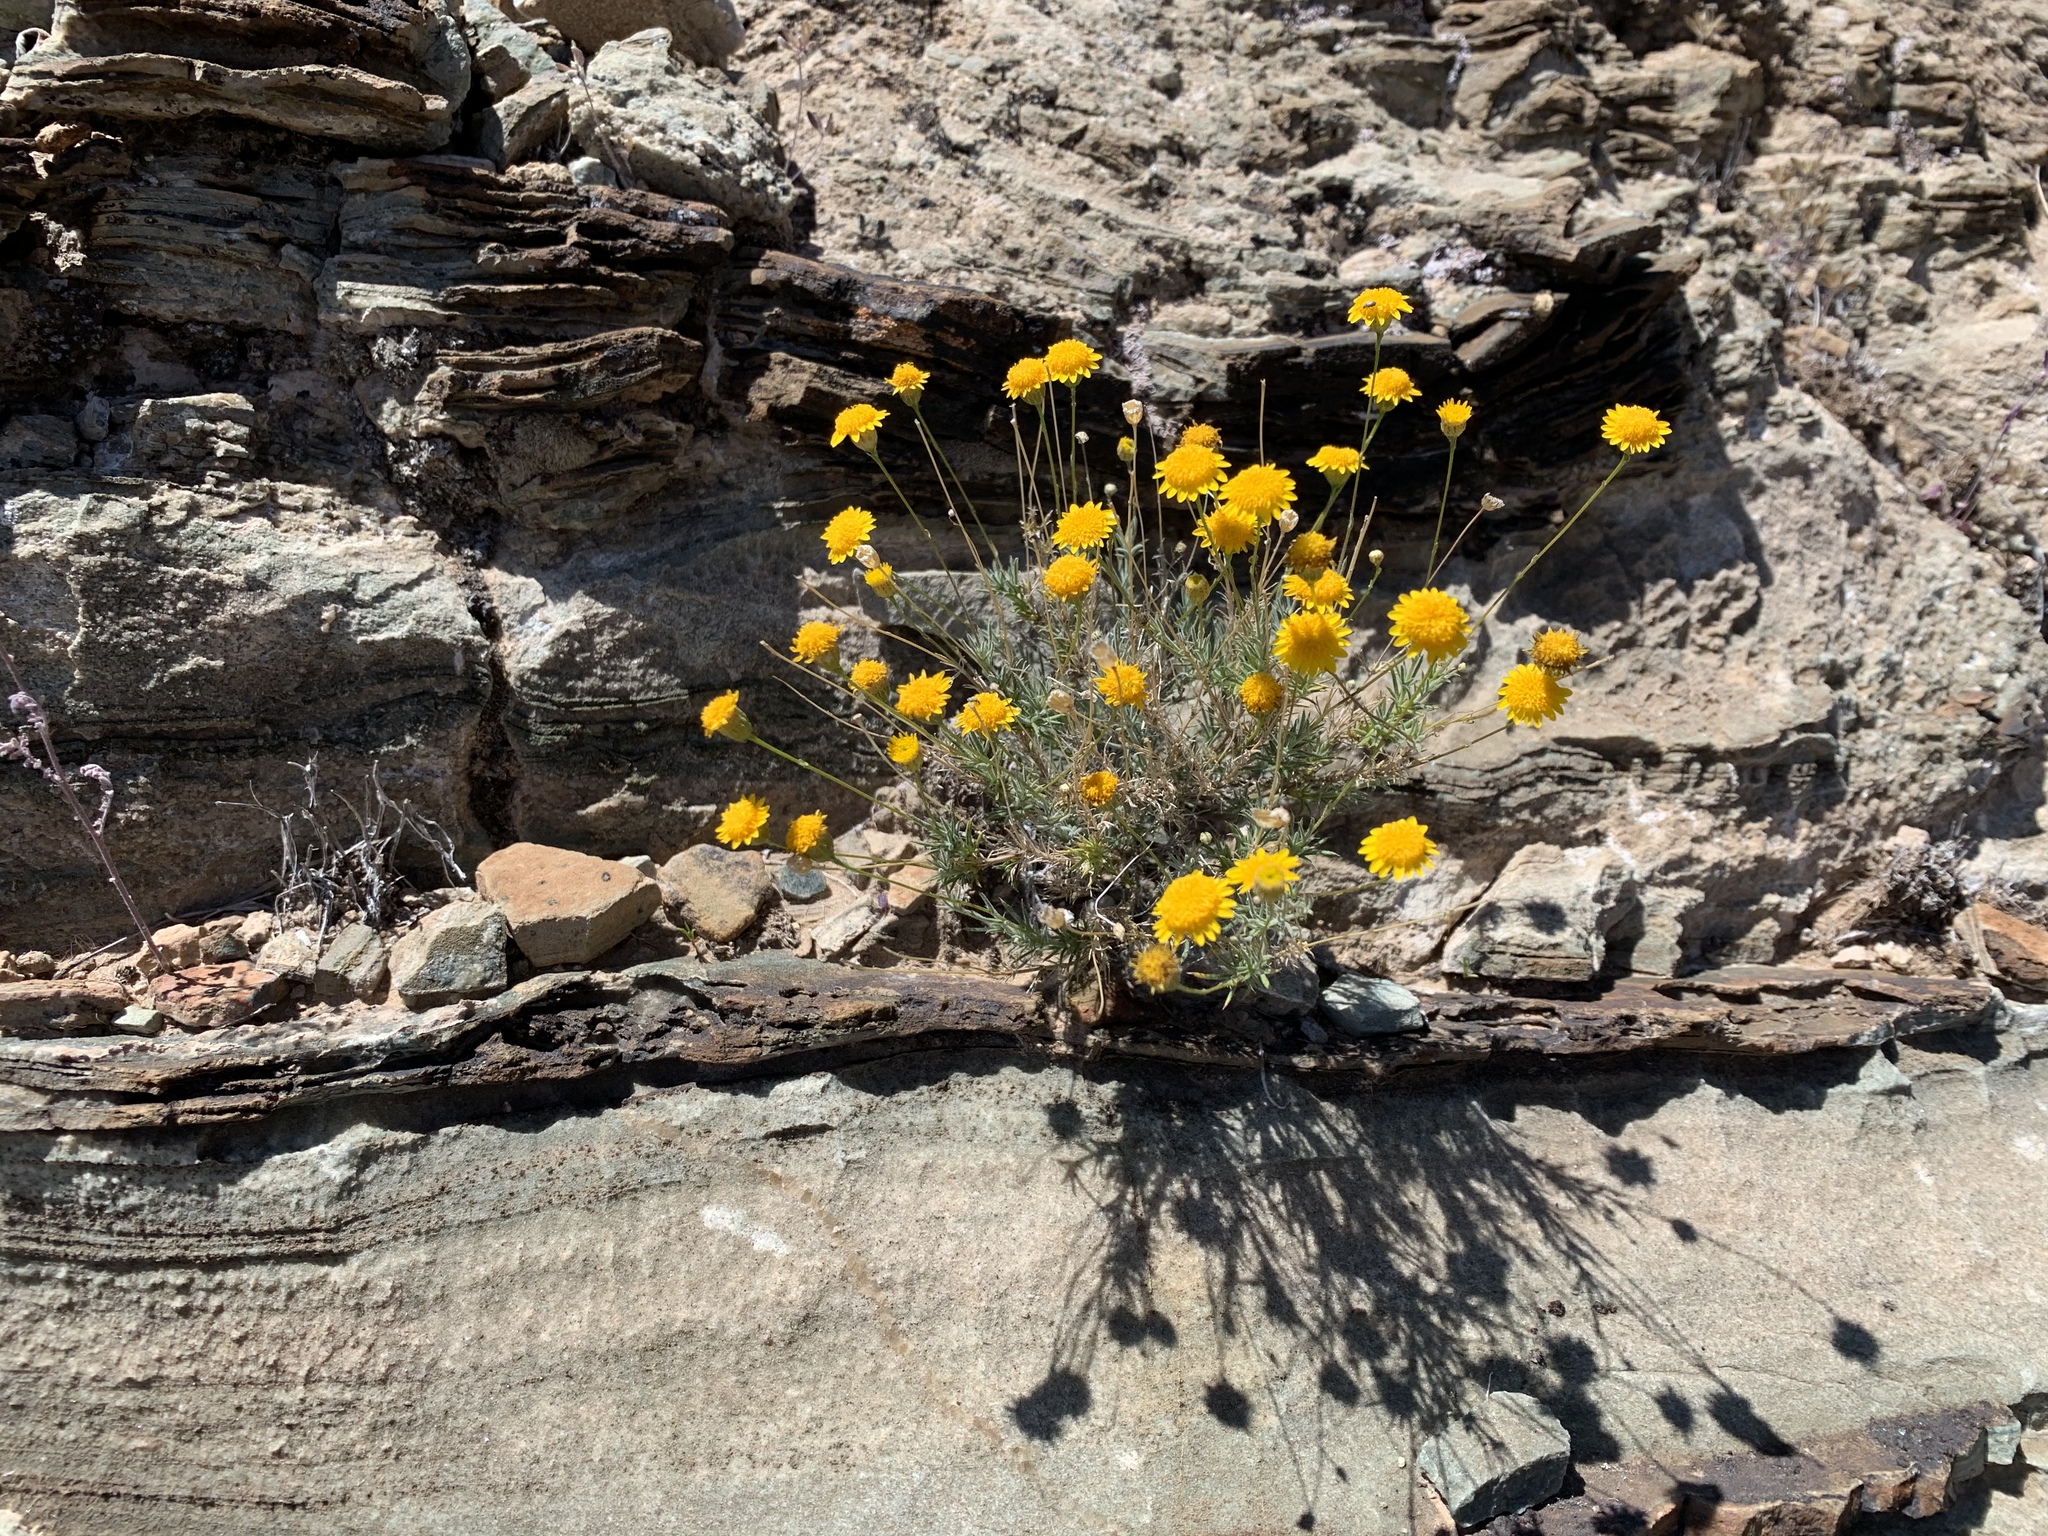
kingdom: Plantae
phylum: Tracheophyta
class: Magnoliopsida
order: Asterales
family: Asteraceae
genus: Thymophylla
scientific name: Thymophylla pentachaeta
